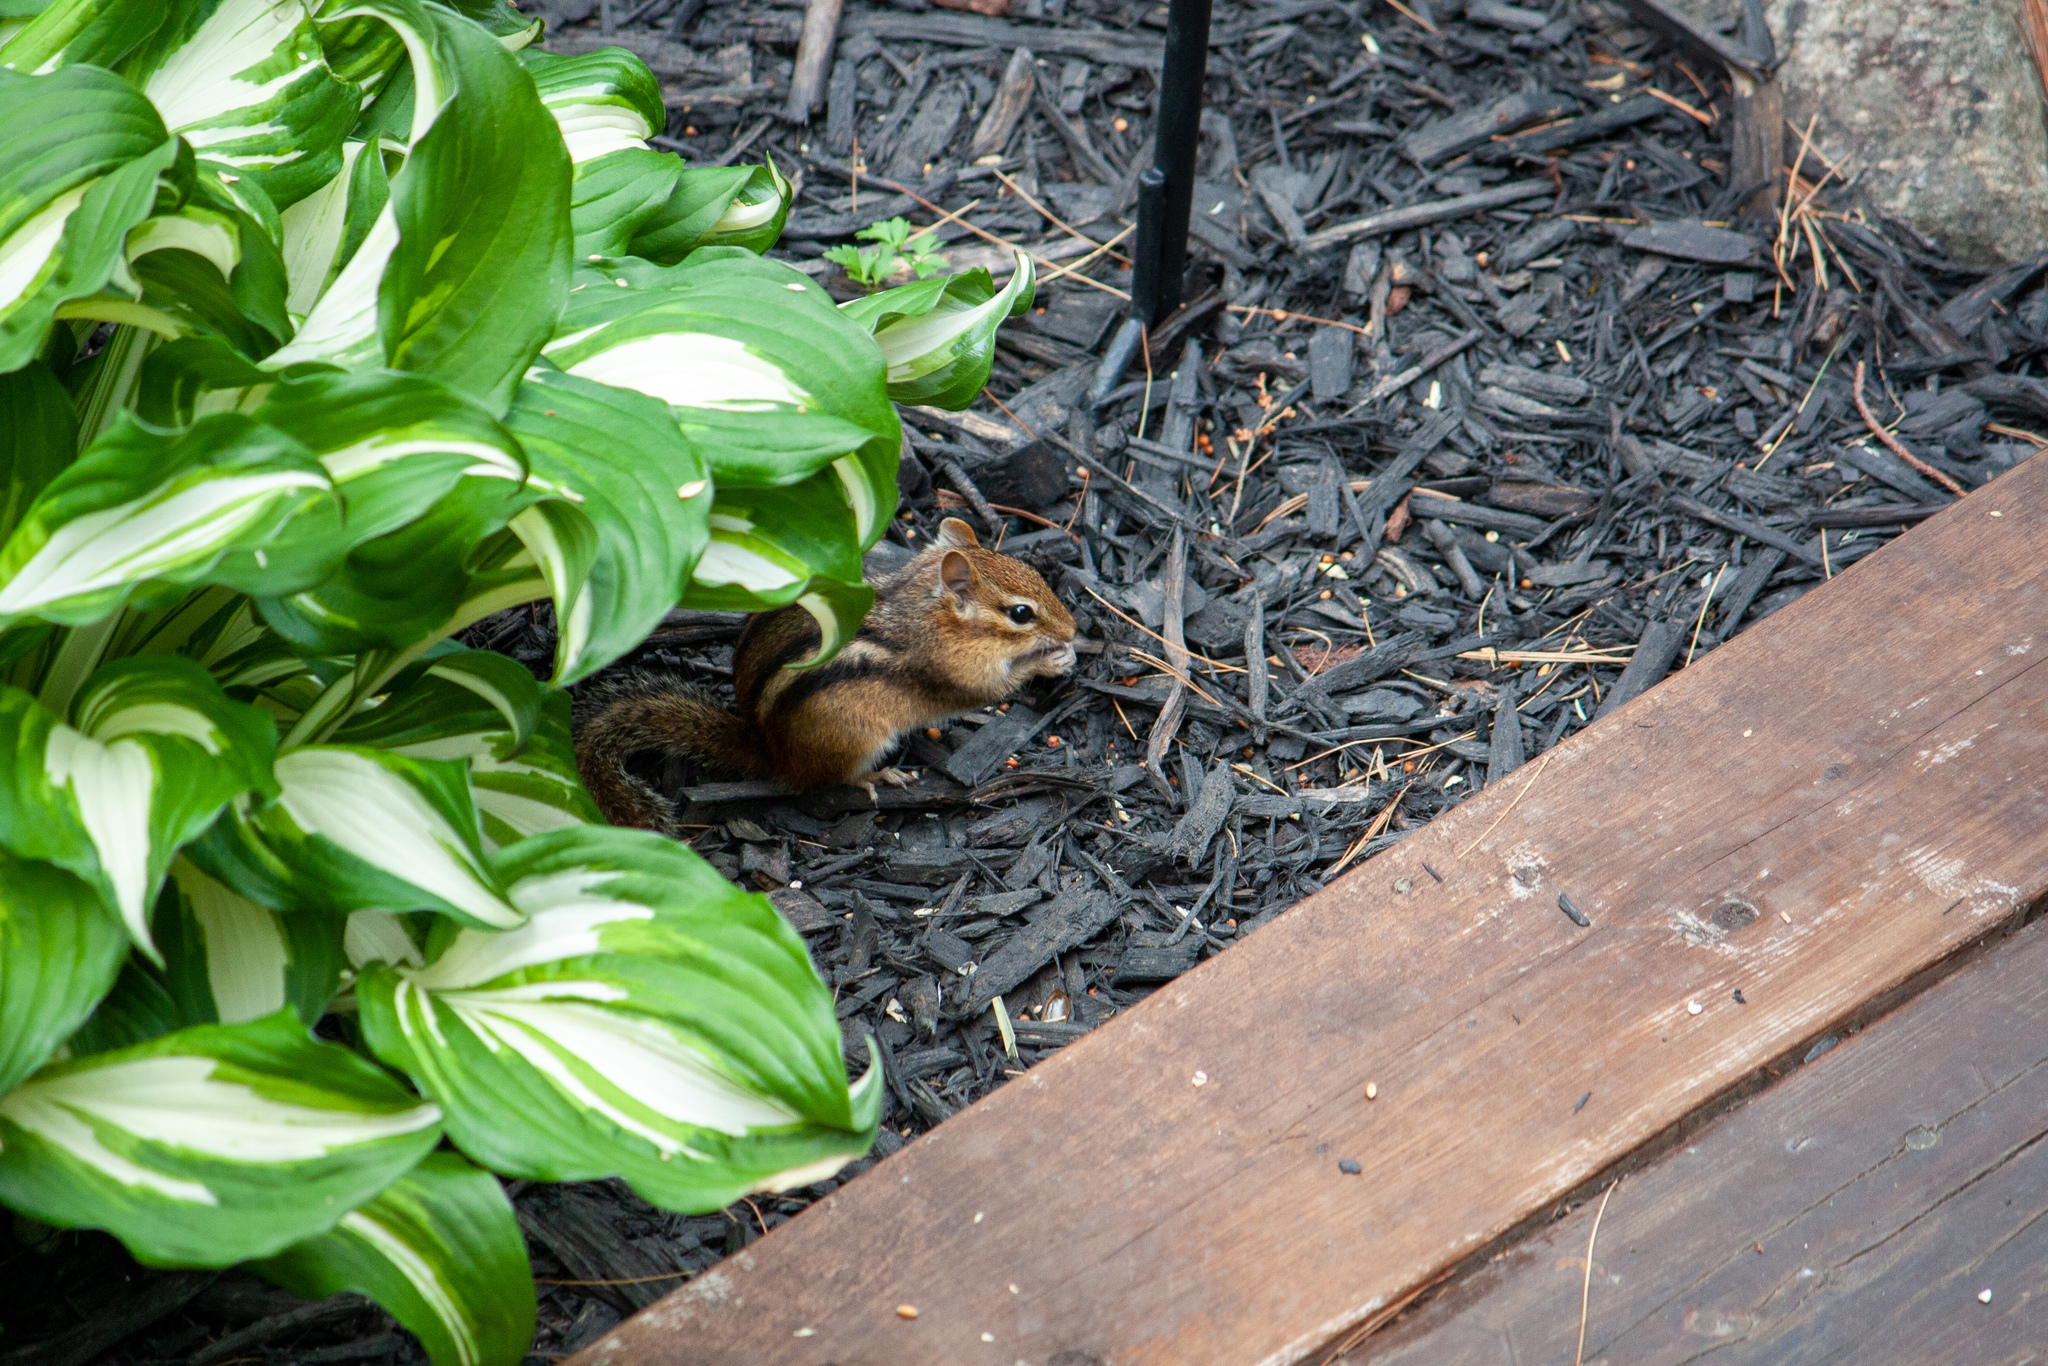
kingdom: Animalia
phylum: Chordata
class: Mammalia
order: Rodentia
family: Sciuridae
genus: Tamias
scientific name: Tamias striatus
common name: Eastern chipmunk
